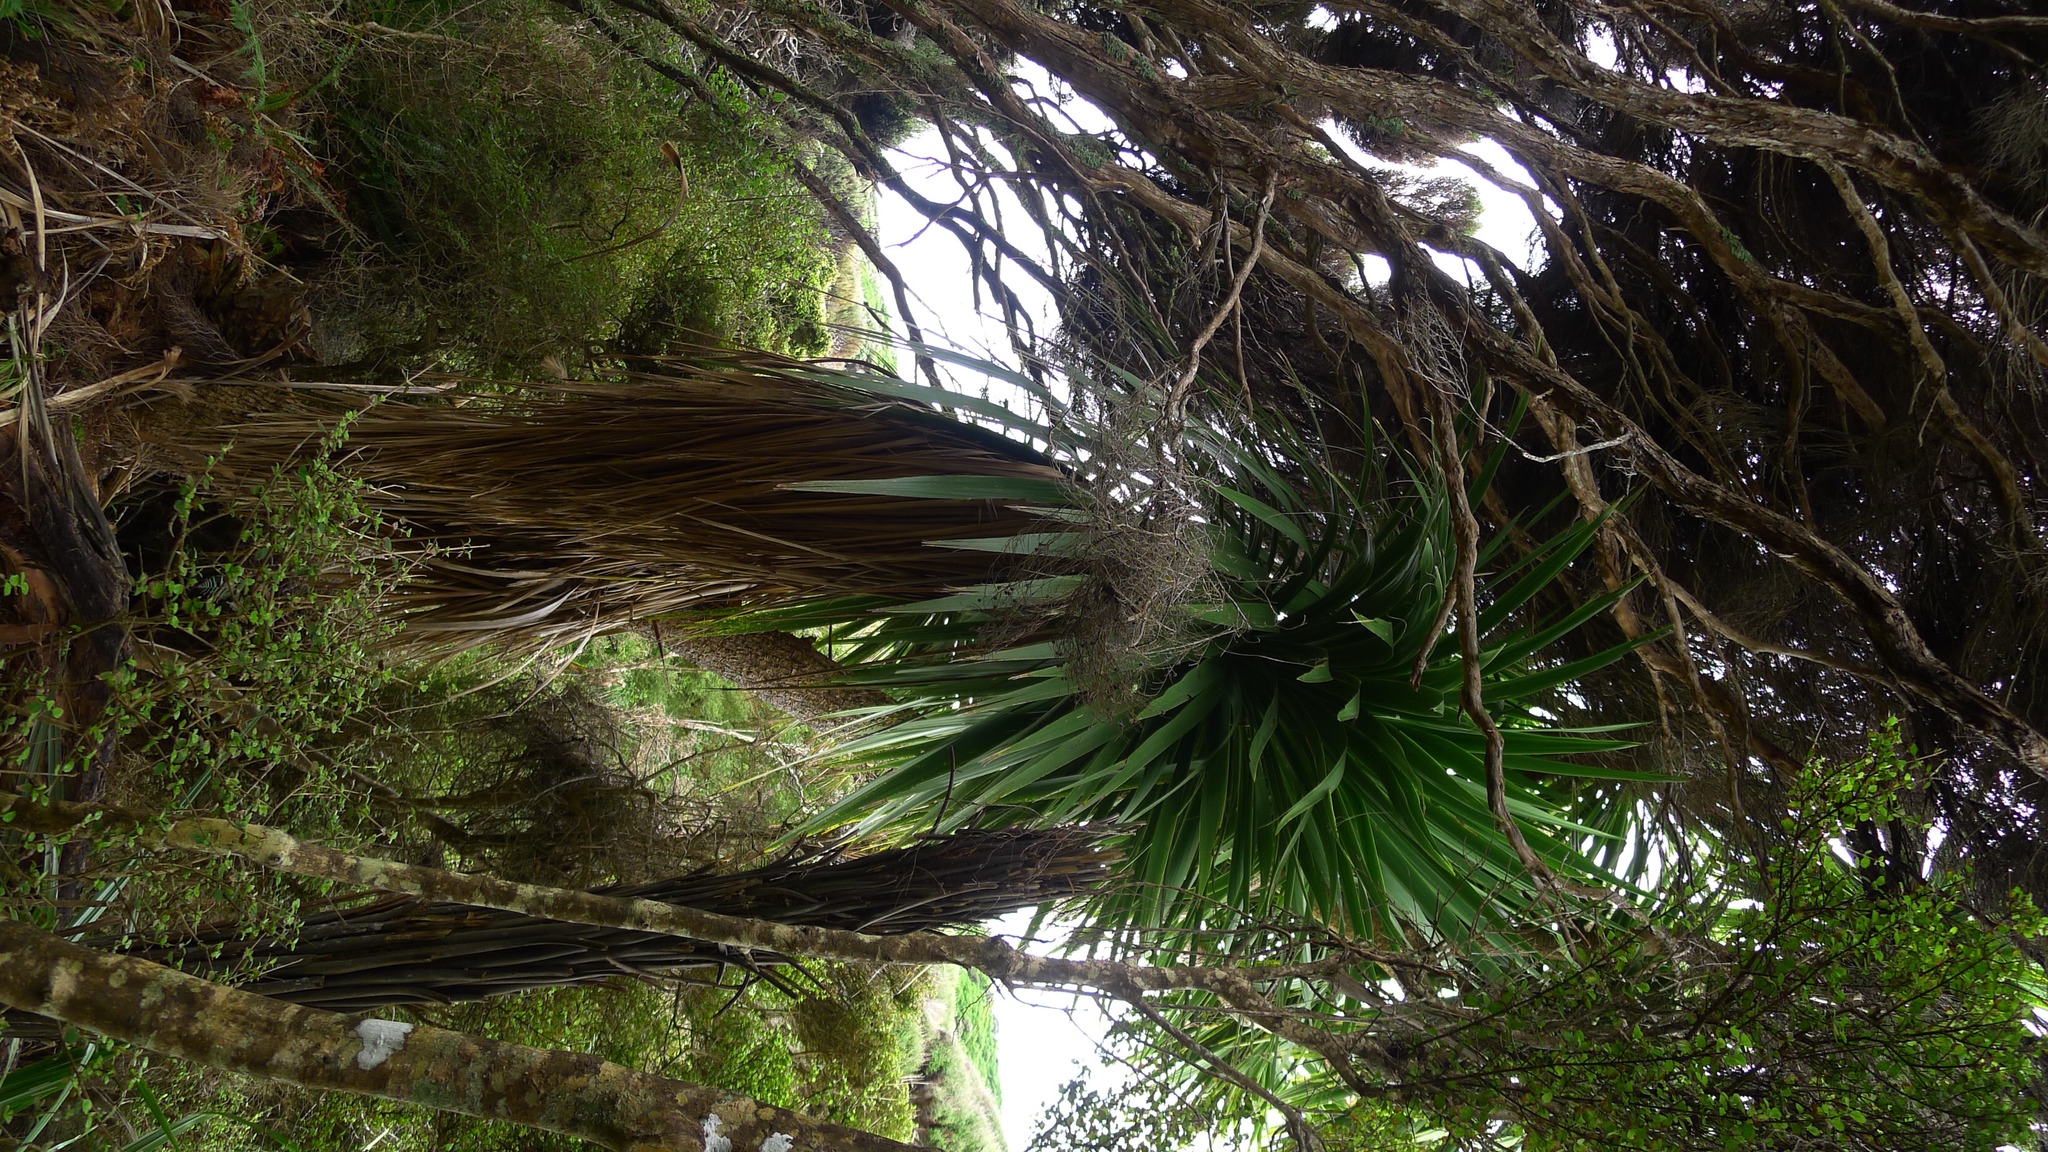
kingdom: Plantae
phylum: Tracheophyta
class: Liliopsida
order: Asparagales
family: Asparagaceae
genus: Cordyline
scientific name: Cordyline australis
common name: Cabbage-palm
